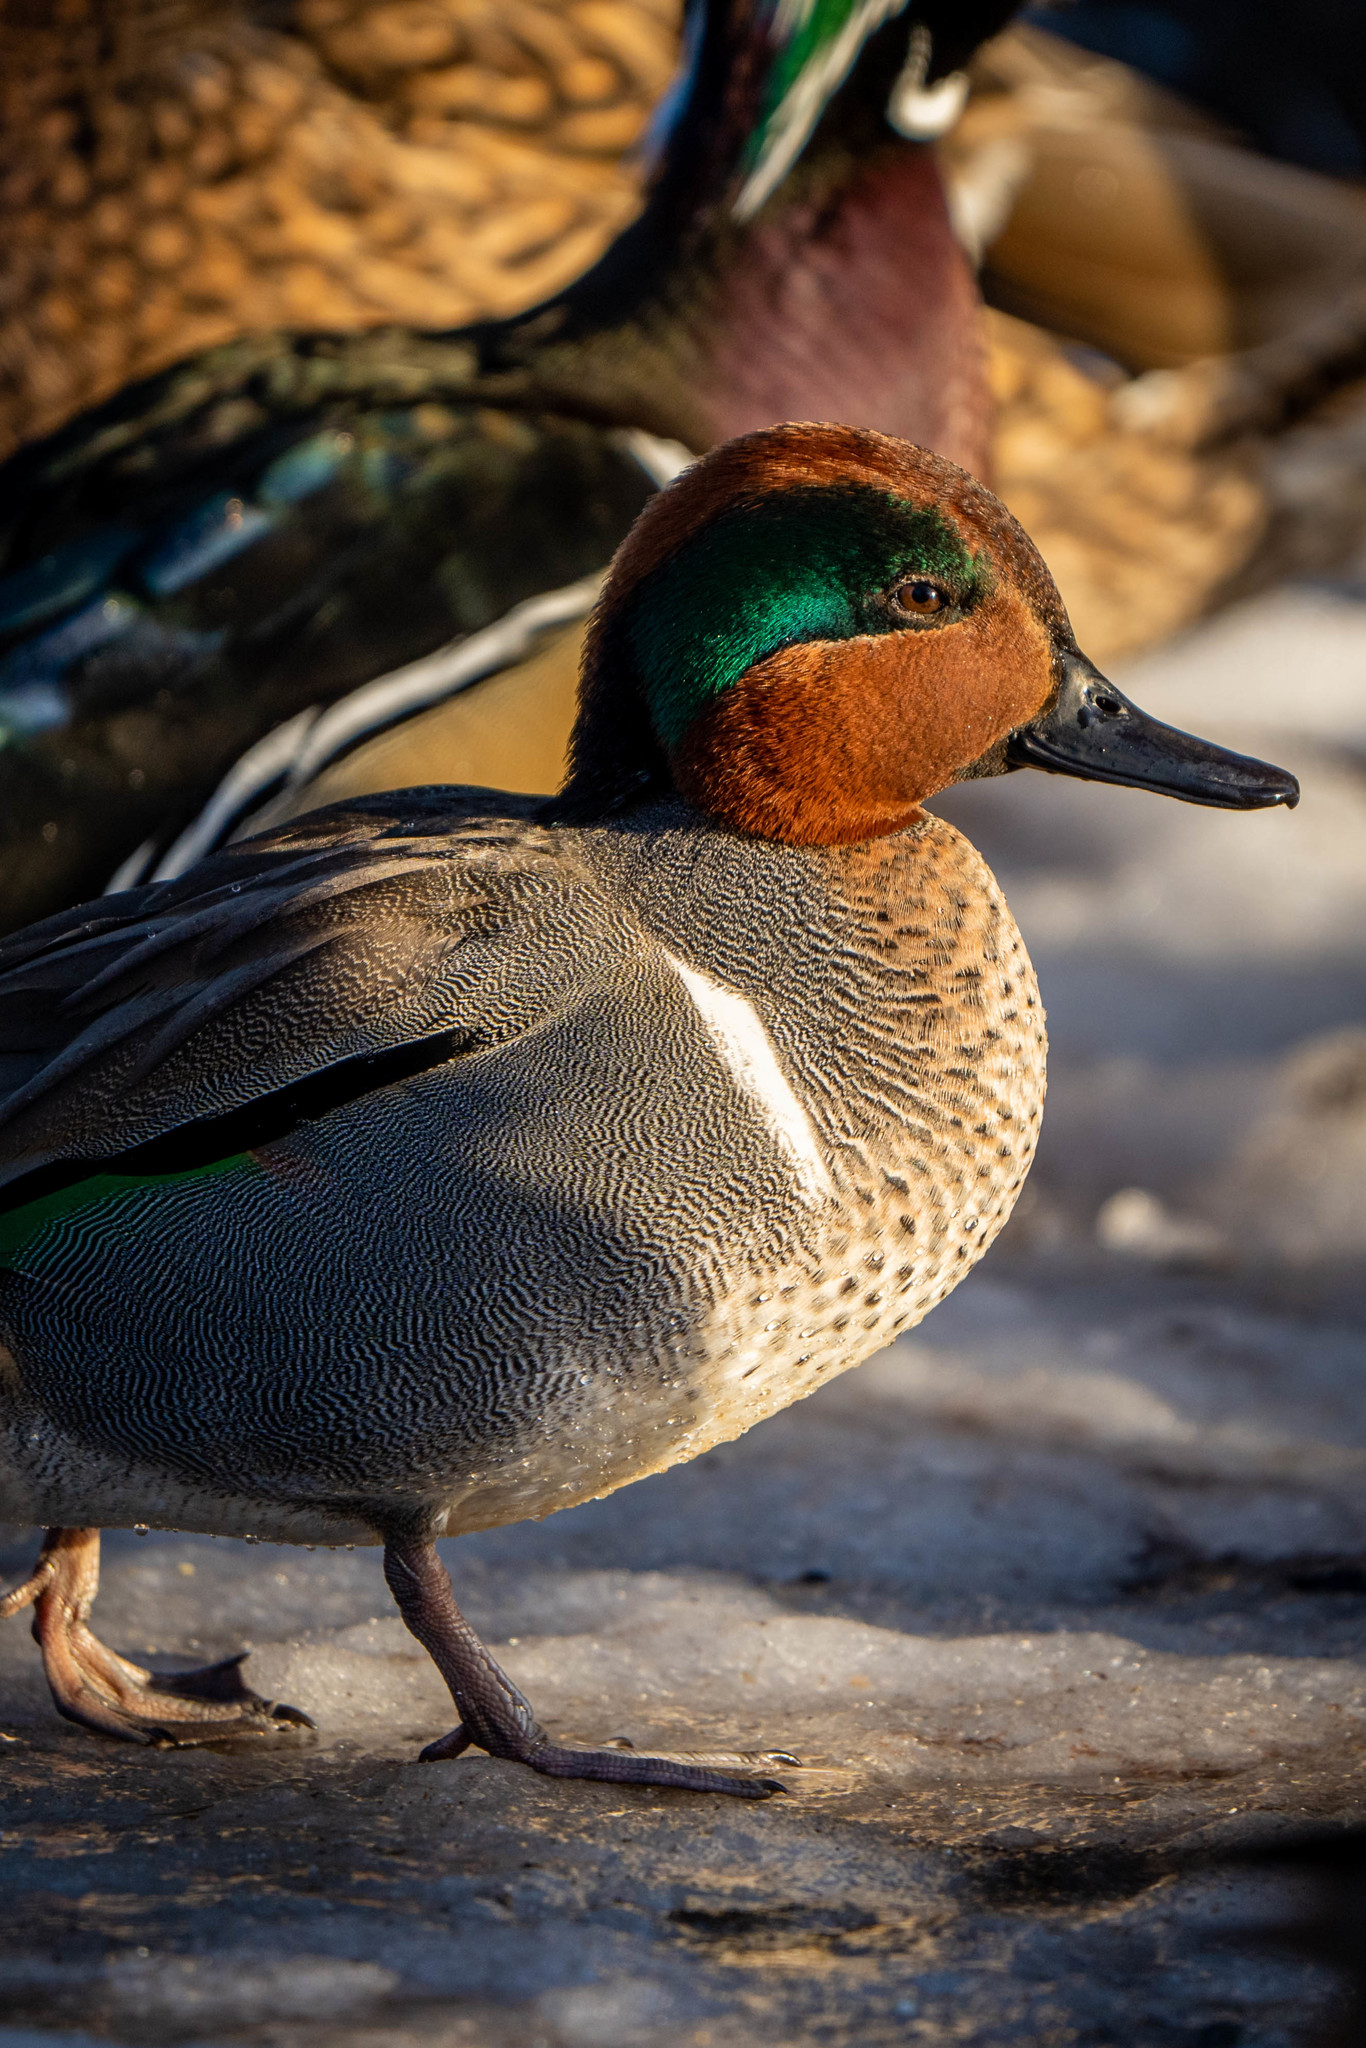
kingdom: Animalia
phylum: Chordata
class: Aves
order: Anseriformes
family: Anatidae
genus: Anas
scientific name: Anas carolinensis
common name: Green-winged teal
